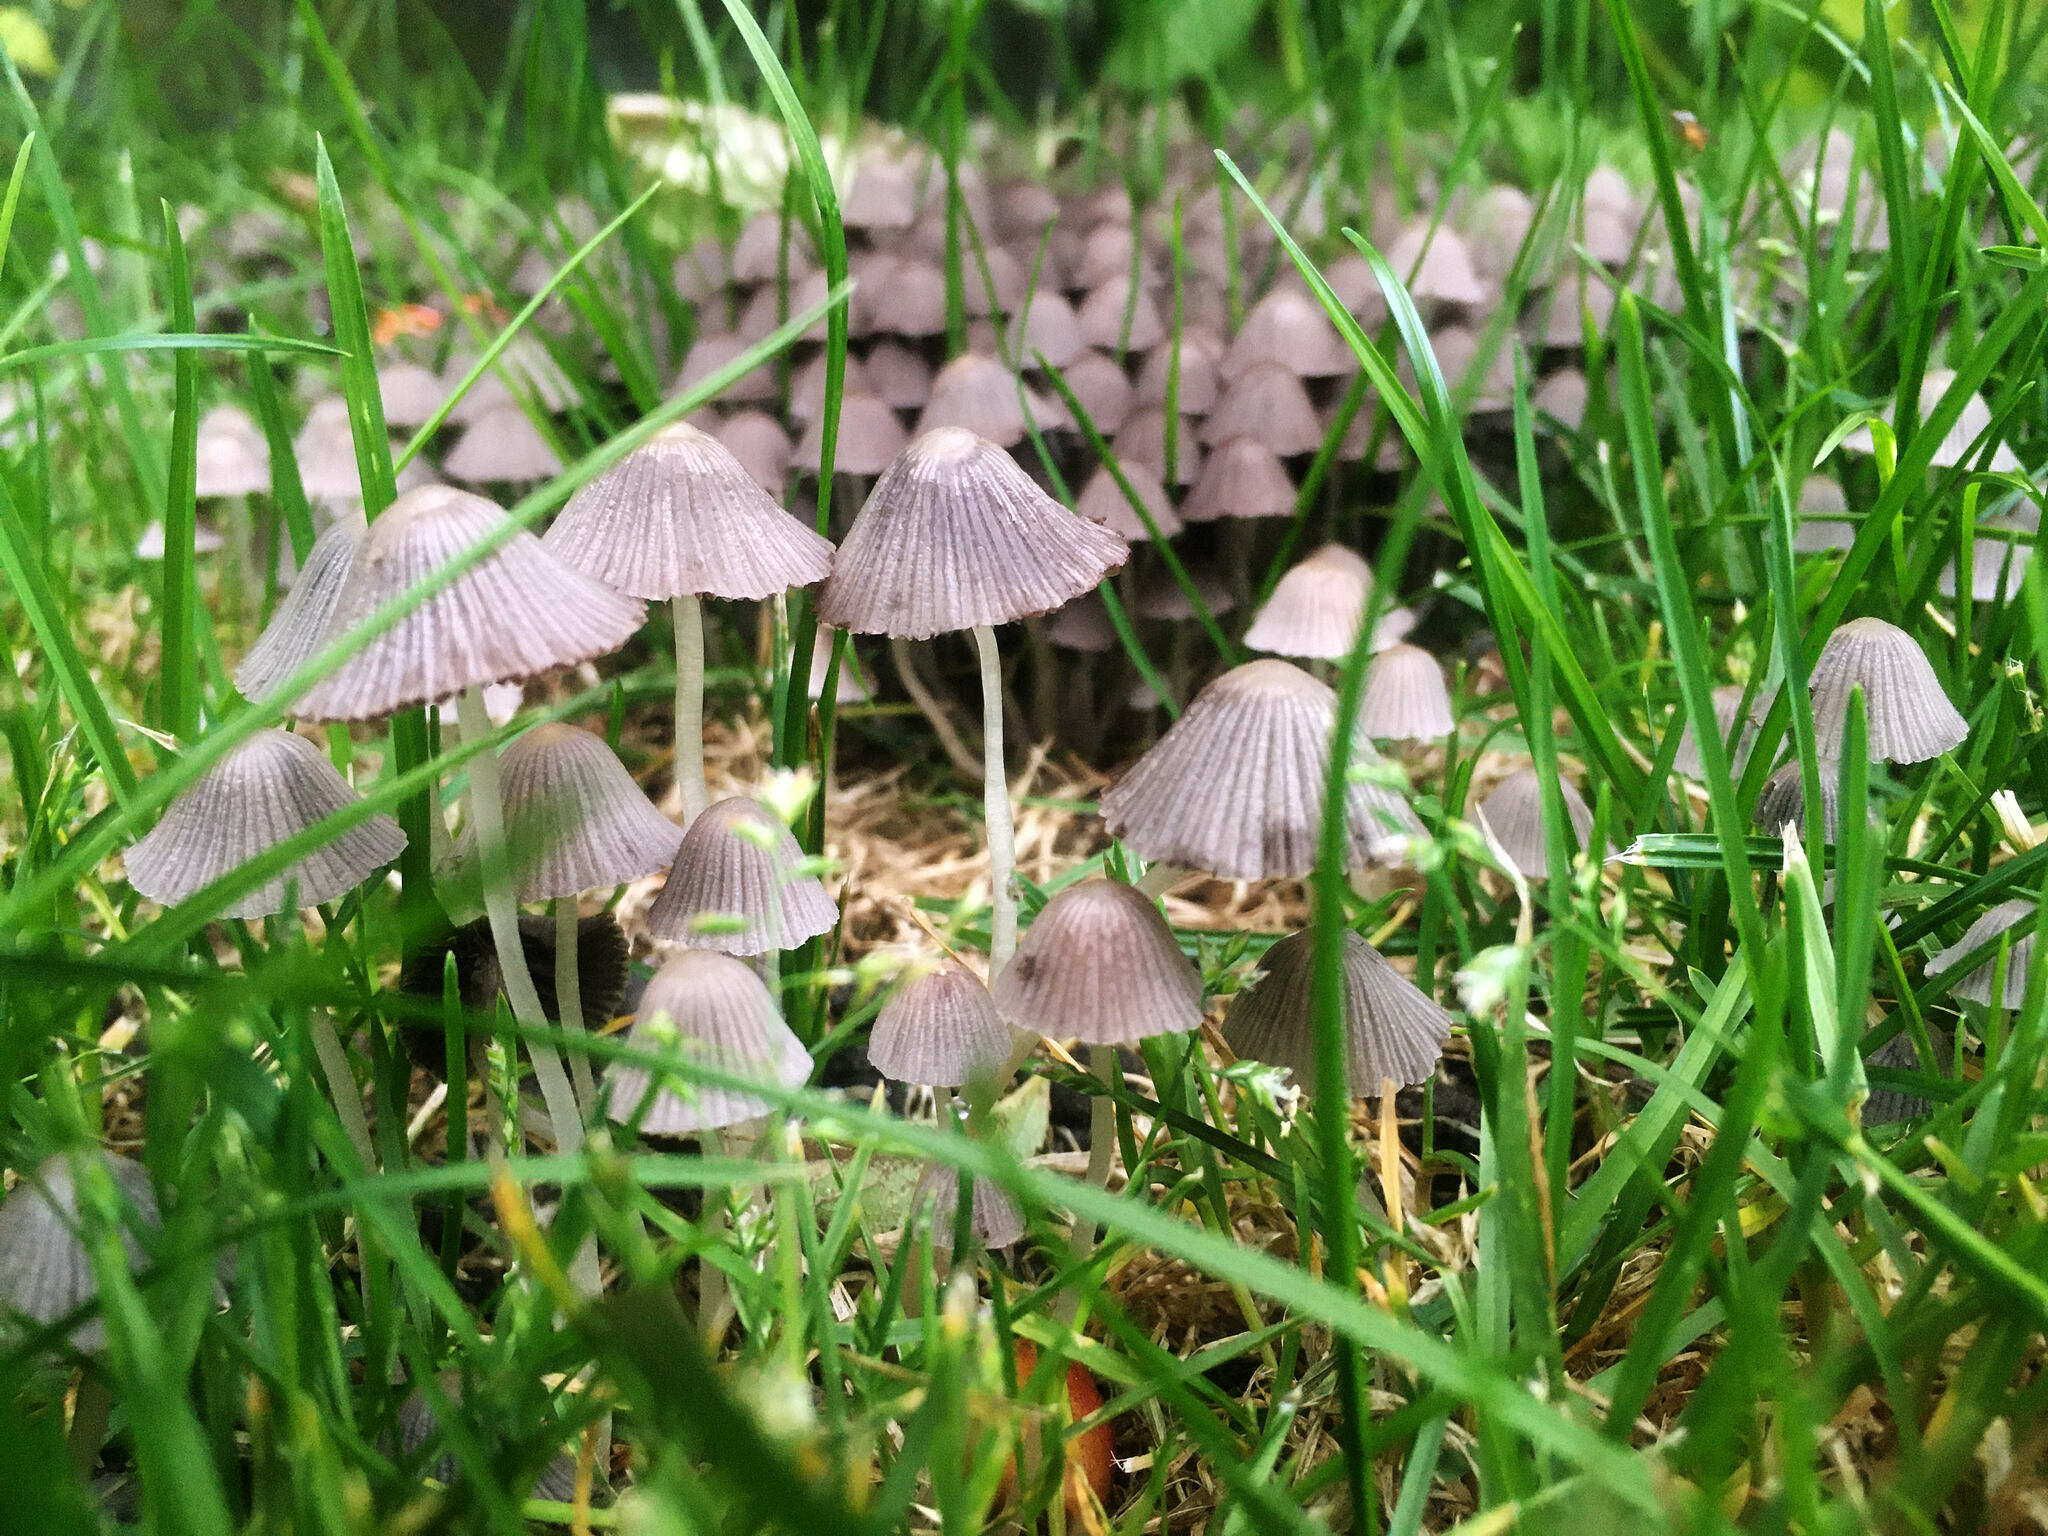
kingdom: Fungi
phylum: Basidiomycota
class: Agaricomycetes
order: Agaricales
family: Psathyrellaceae
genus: Coprinellus
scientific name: Coprinellus disseminatus
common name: Fairies' bonnets
